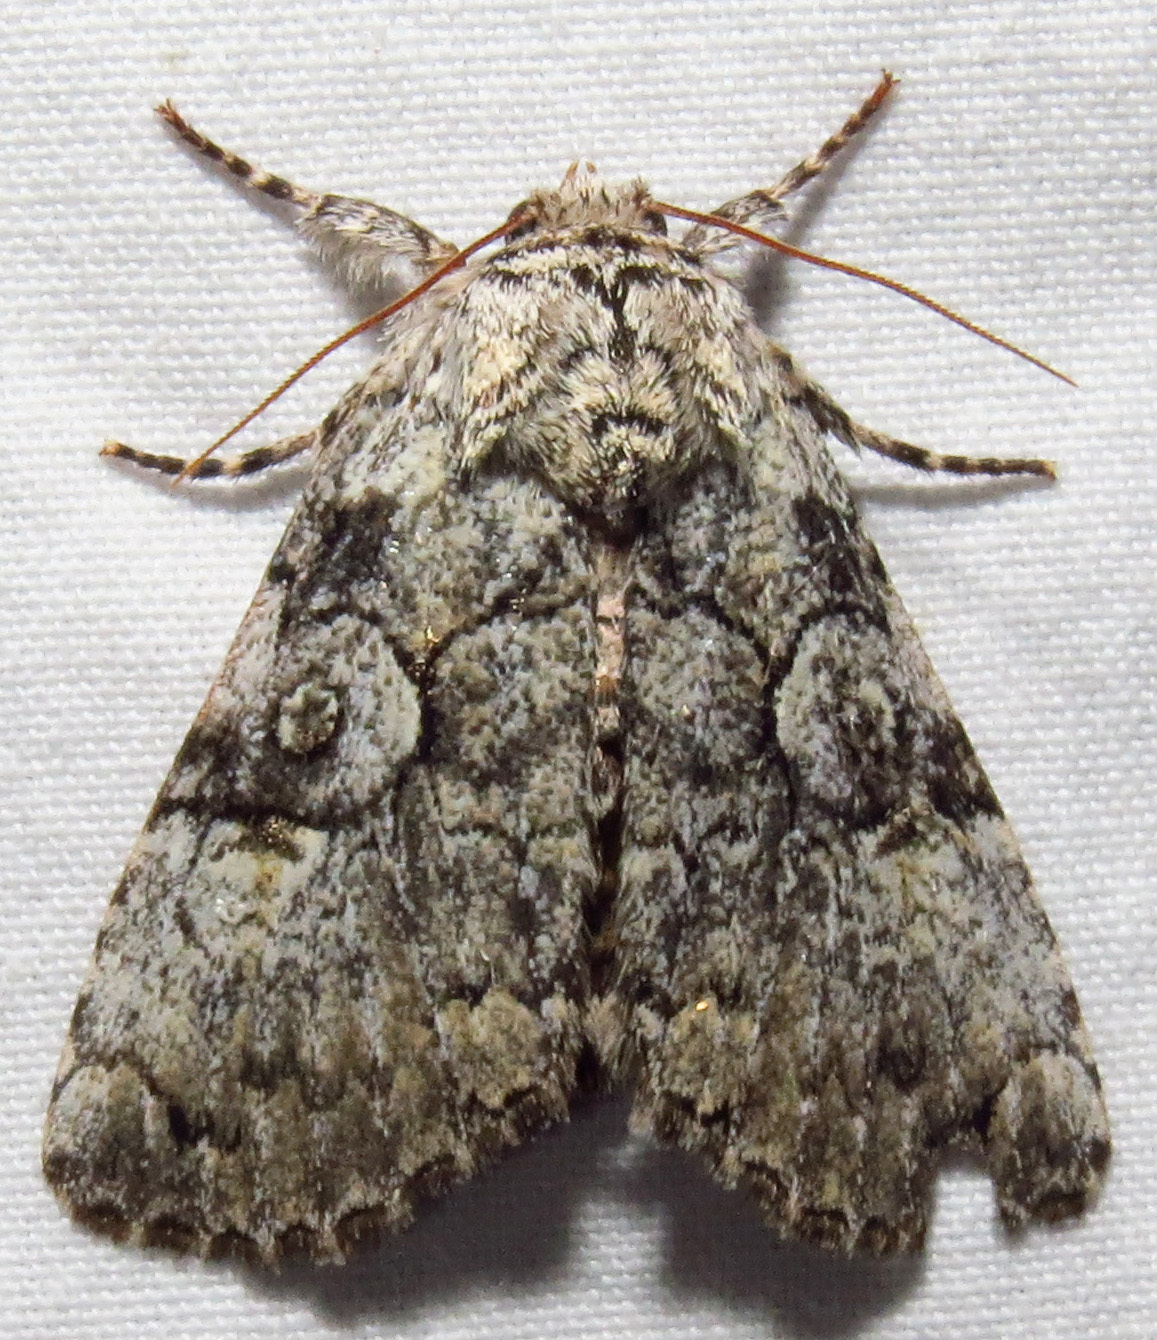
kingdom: Animalia
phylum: Arthropoda
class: Insecta
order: Lepidoptera
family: Noctuidae
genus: Charadra
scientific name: Charadra deridens
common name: Marbled tuffet
